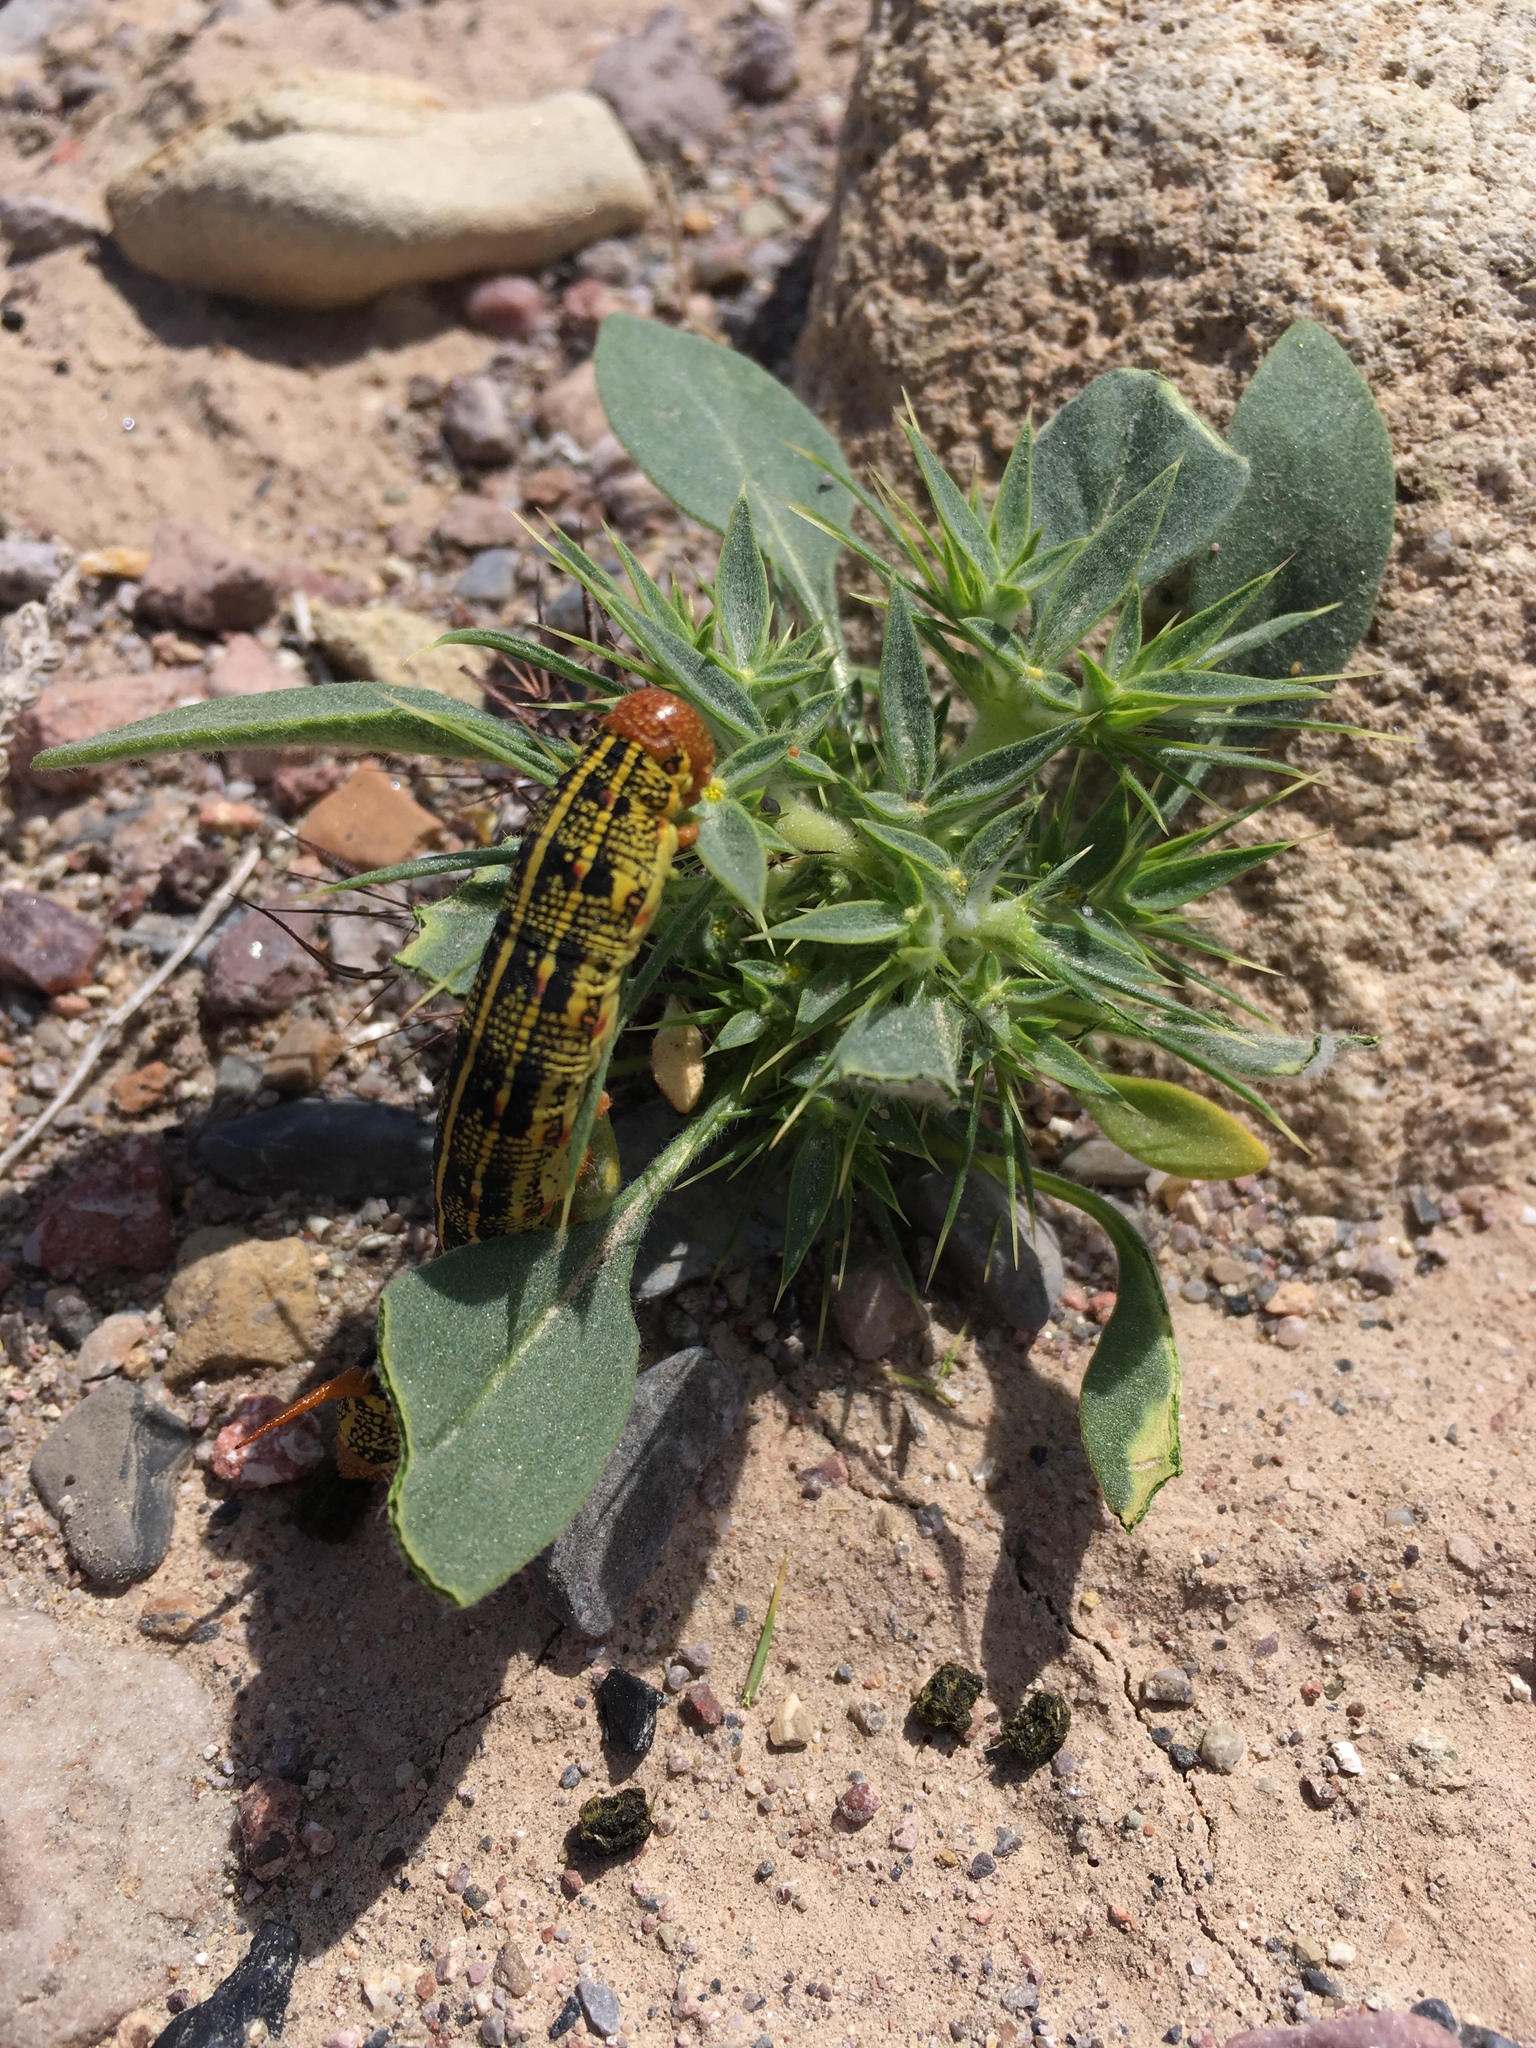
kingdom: Animalia
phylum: Arthropoda
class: Insecta
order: Lepidoptera
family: Sphingidae
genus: Hyles
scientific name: Hyles lineata
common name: White-lined sphinx
